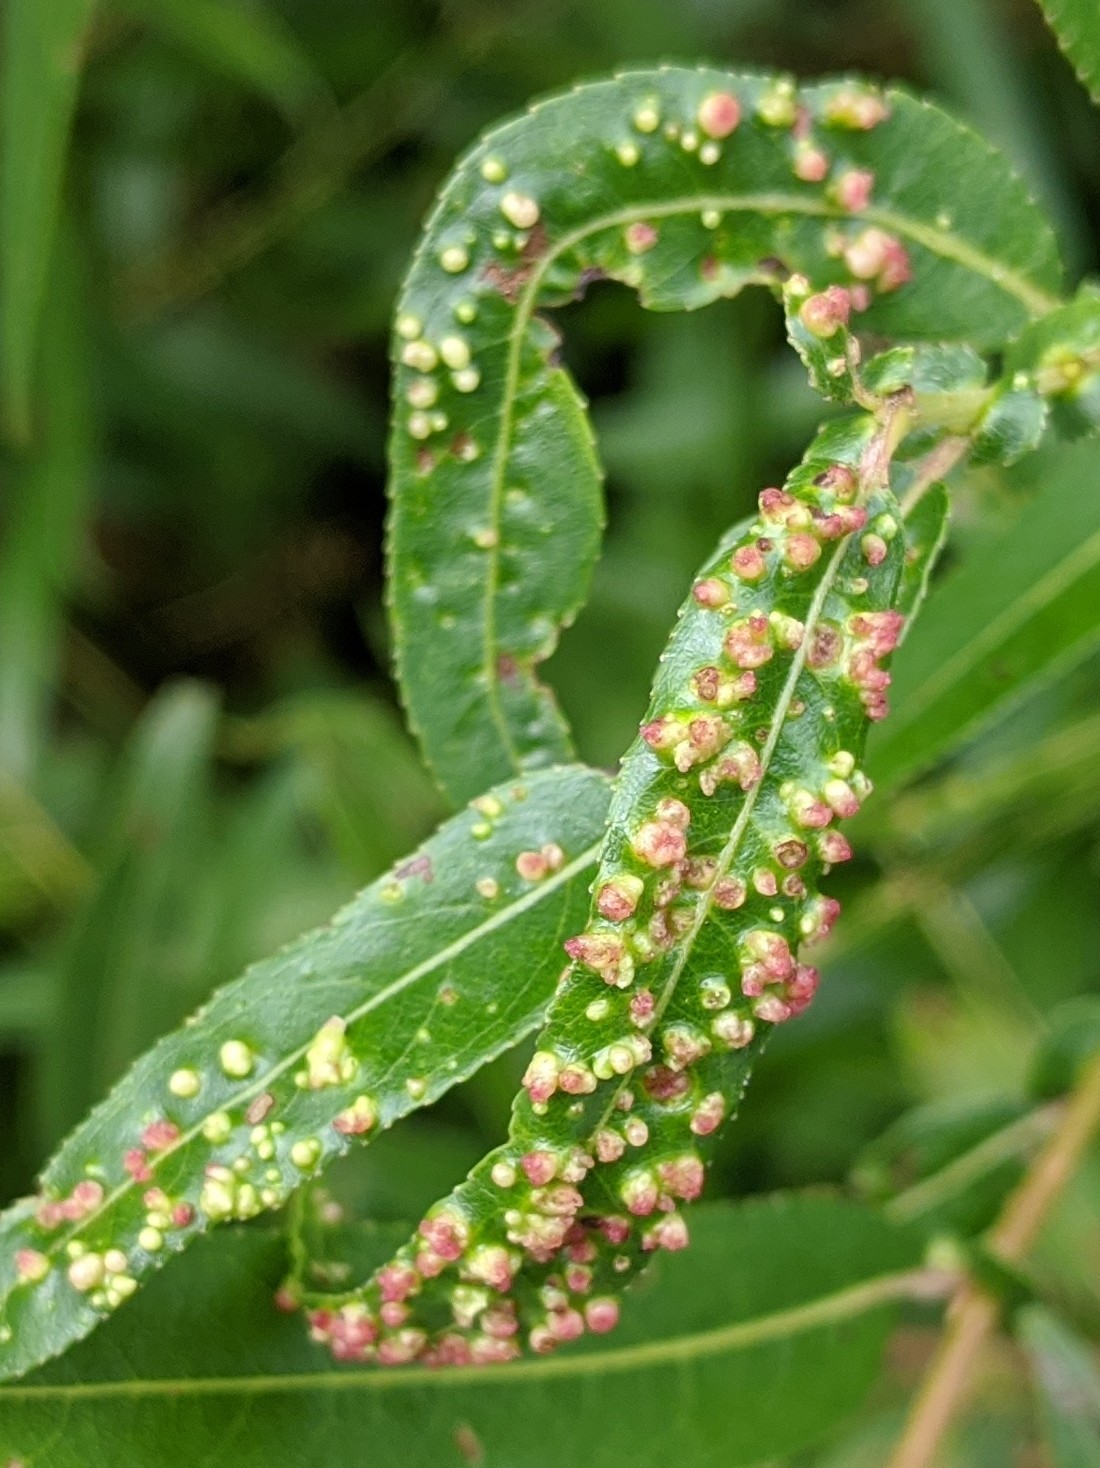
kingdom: Animalia
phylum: Arthropoda
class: Arachnida
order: Trombidiformes
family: Eriophyidae
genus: Aculus
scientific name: Aculus tetanothrix
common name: Willow bead gall mite
